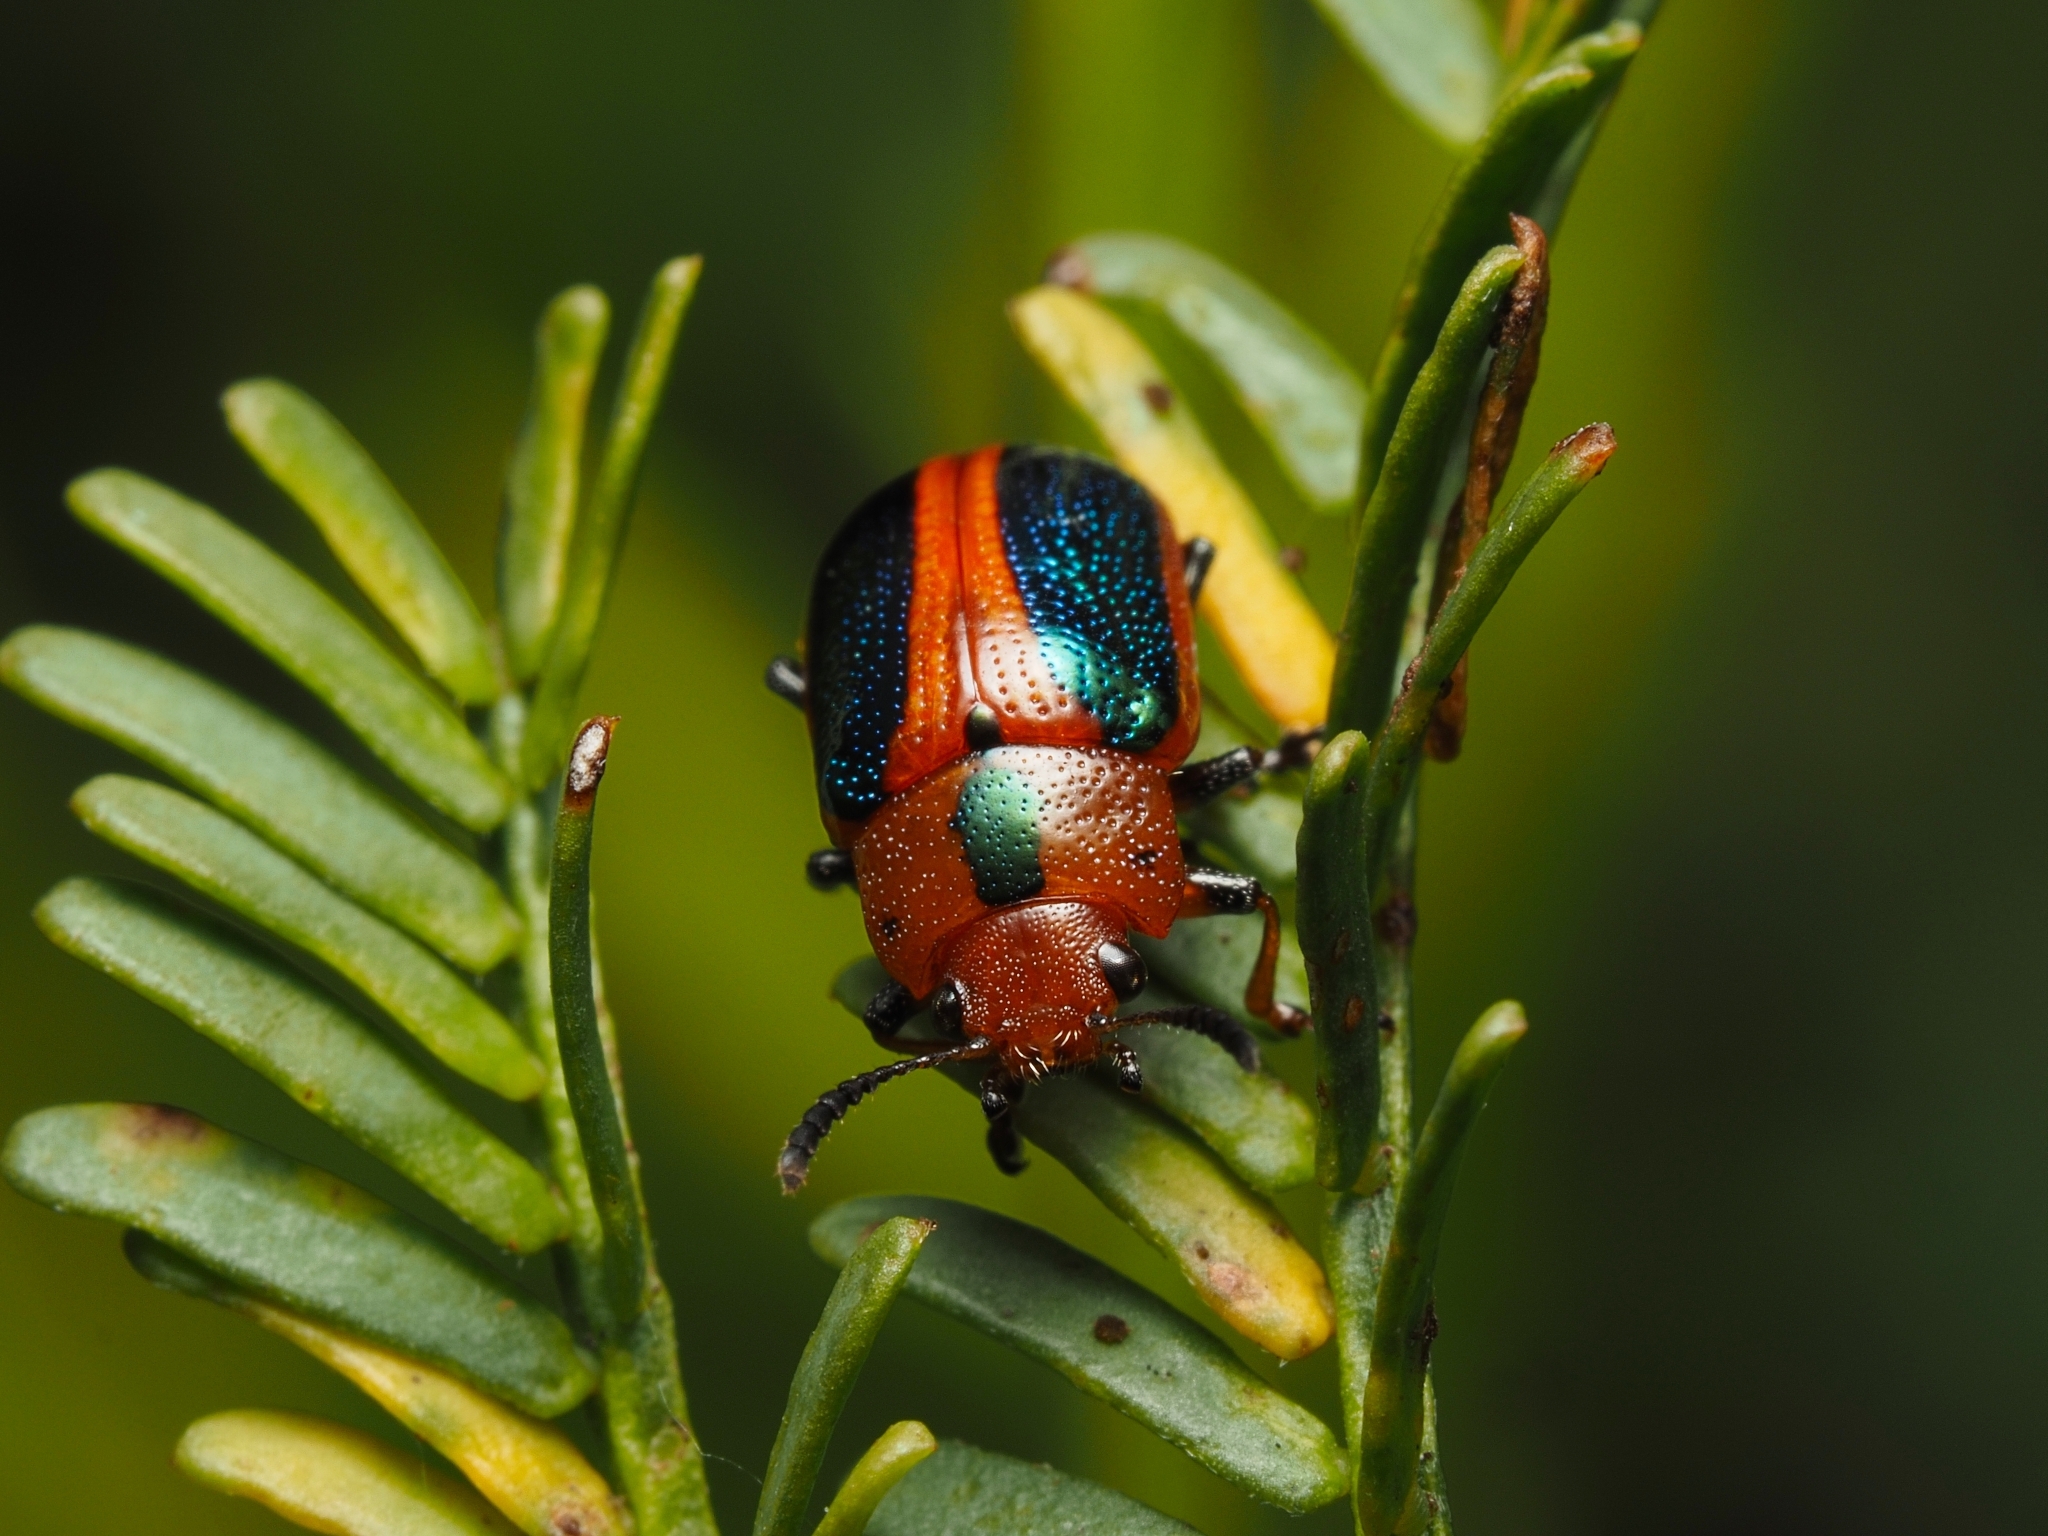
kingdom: Animalia
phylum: Arthropoda
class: Insecta
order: Coleoptera
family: Chrysomelidae
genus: Calomela
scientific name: Calomela
